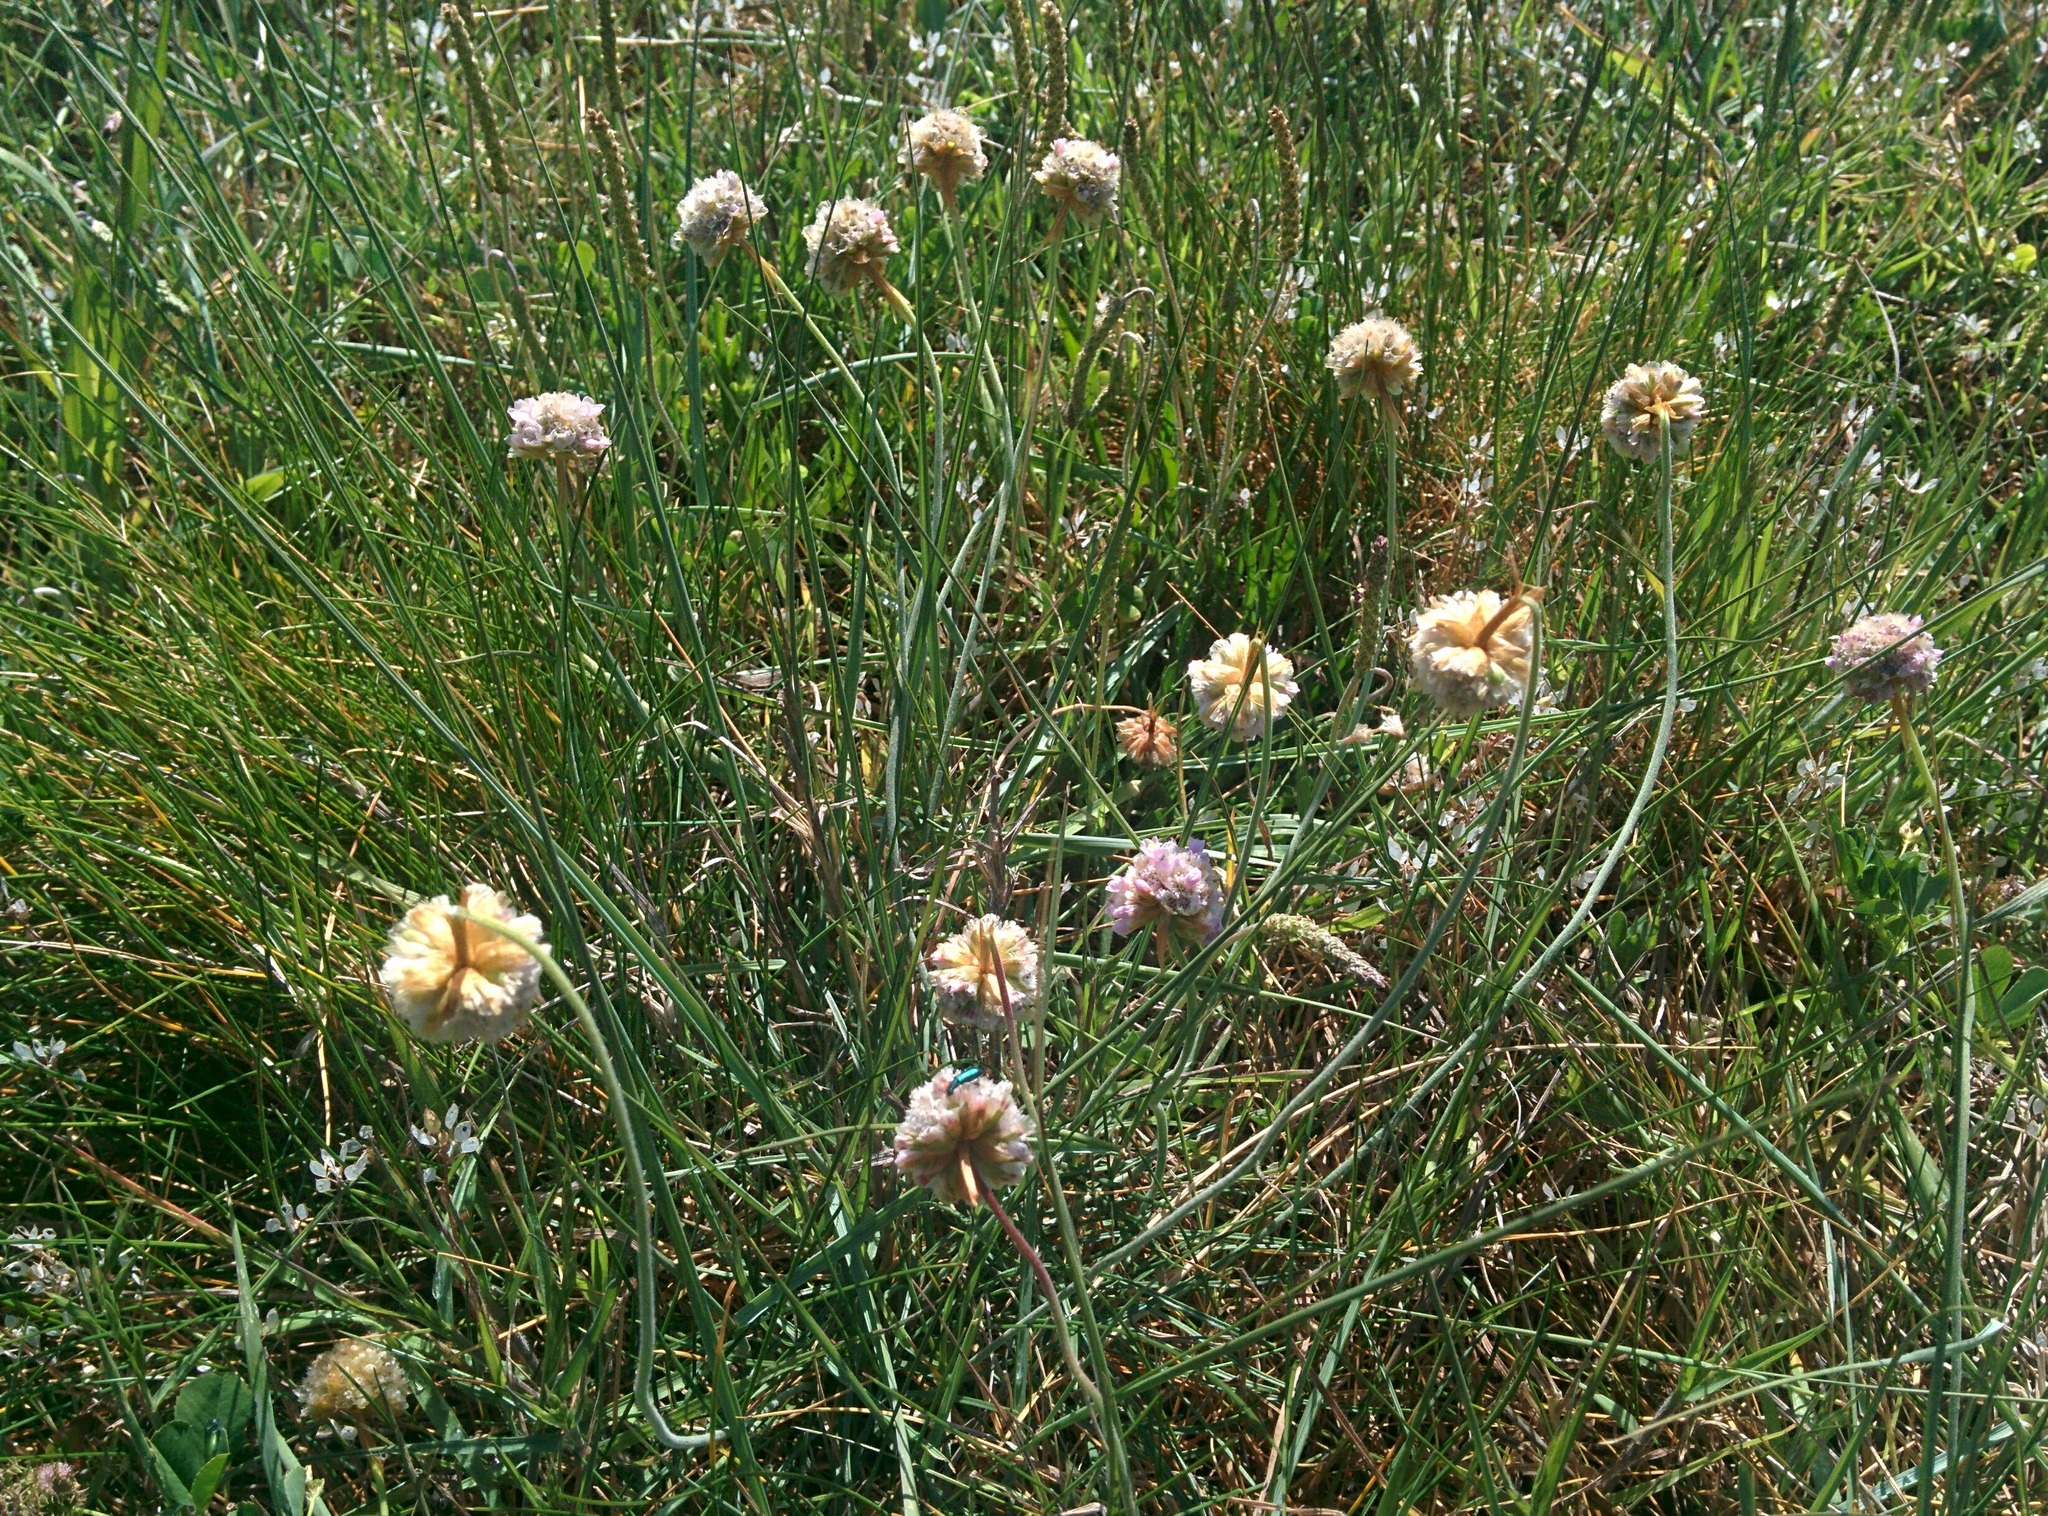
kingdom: Plantae
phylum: Tracheophyta
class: Magnoliopsida
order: Caryophyllales
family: Plumbaginaceae
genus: Armeria
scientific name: Armeria maritima
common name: Thrift
